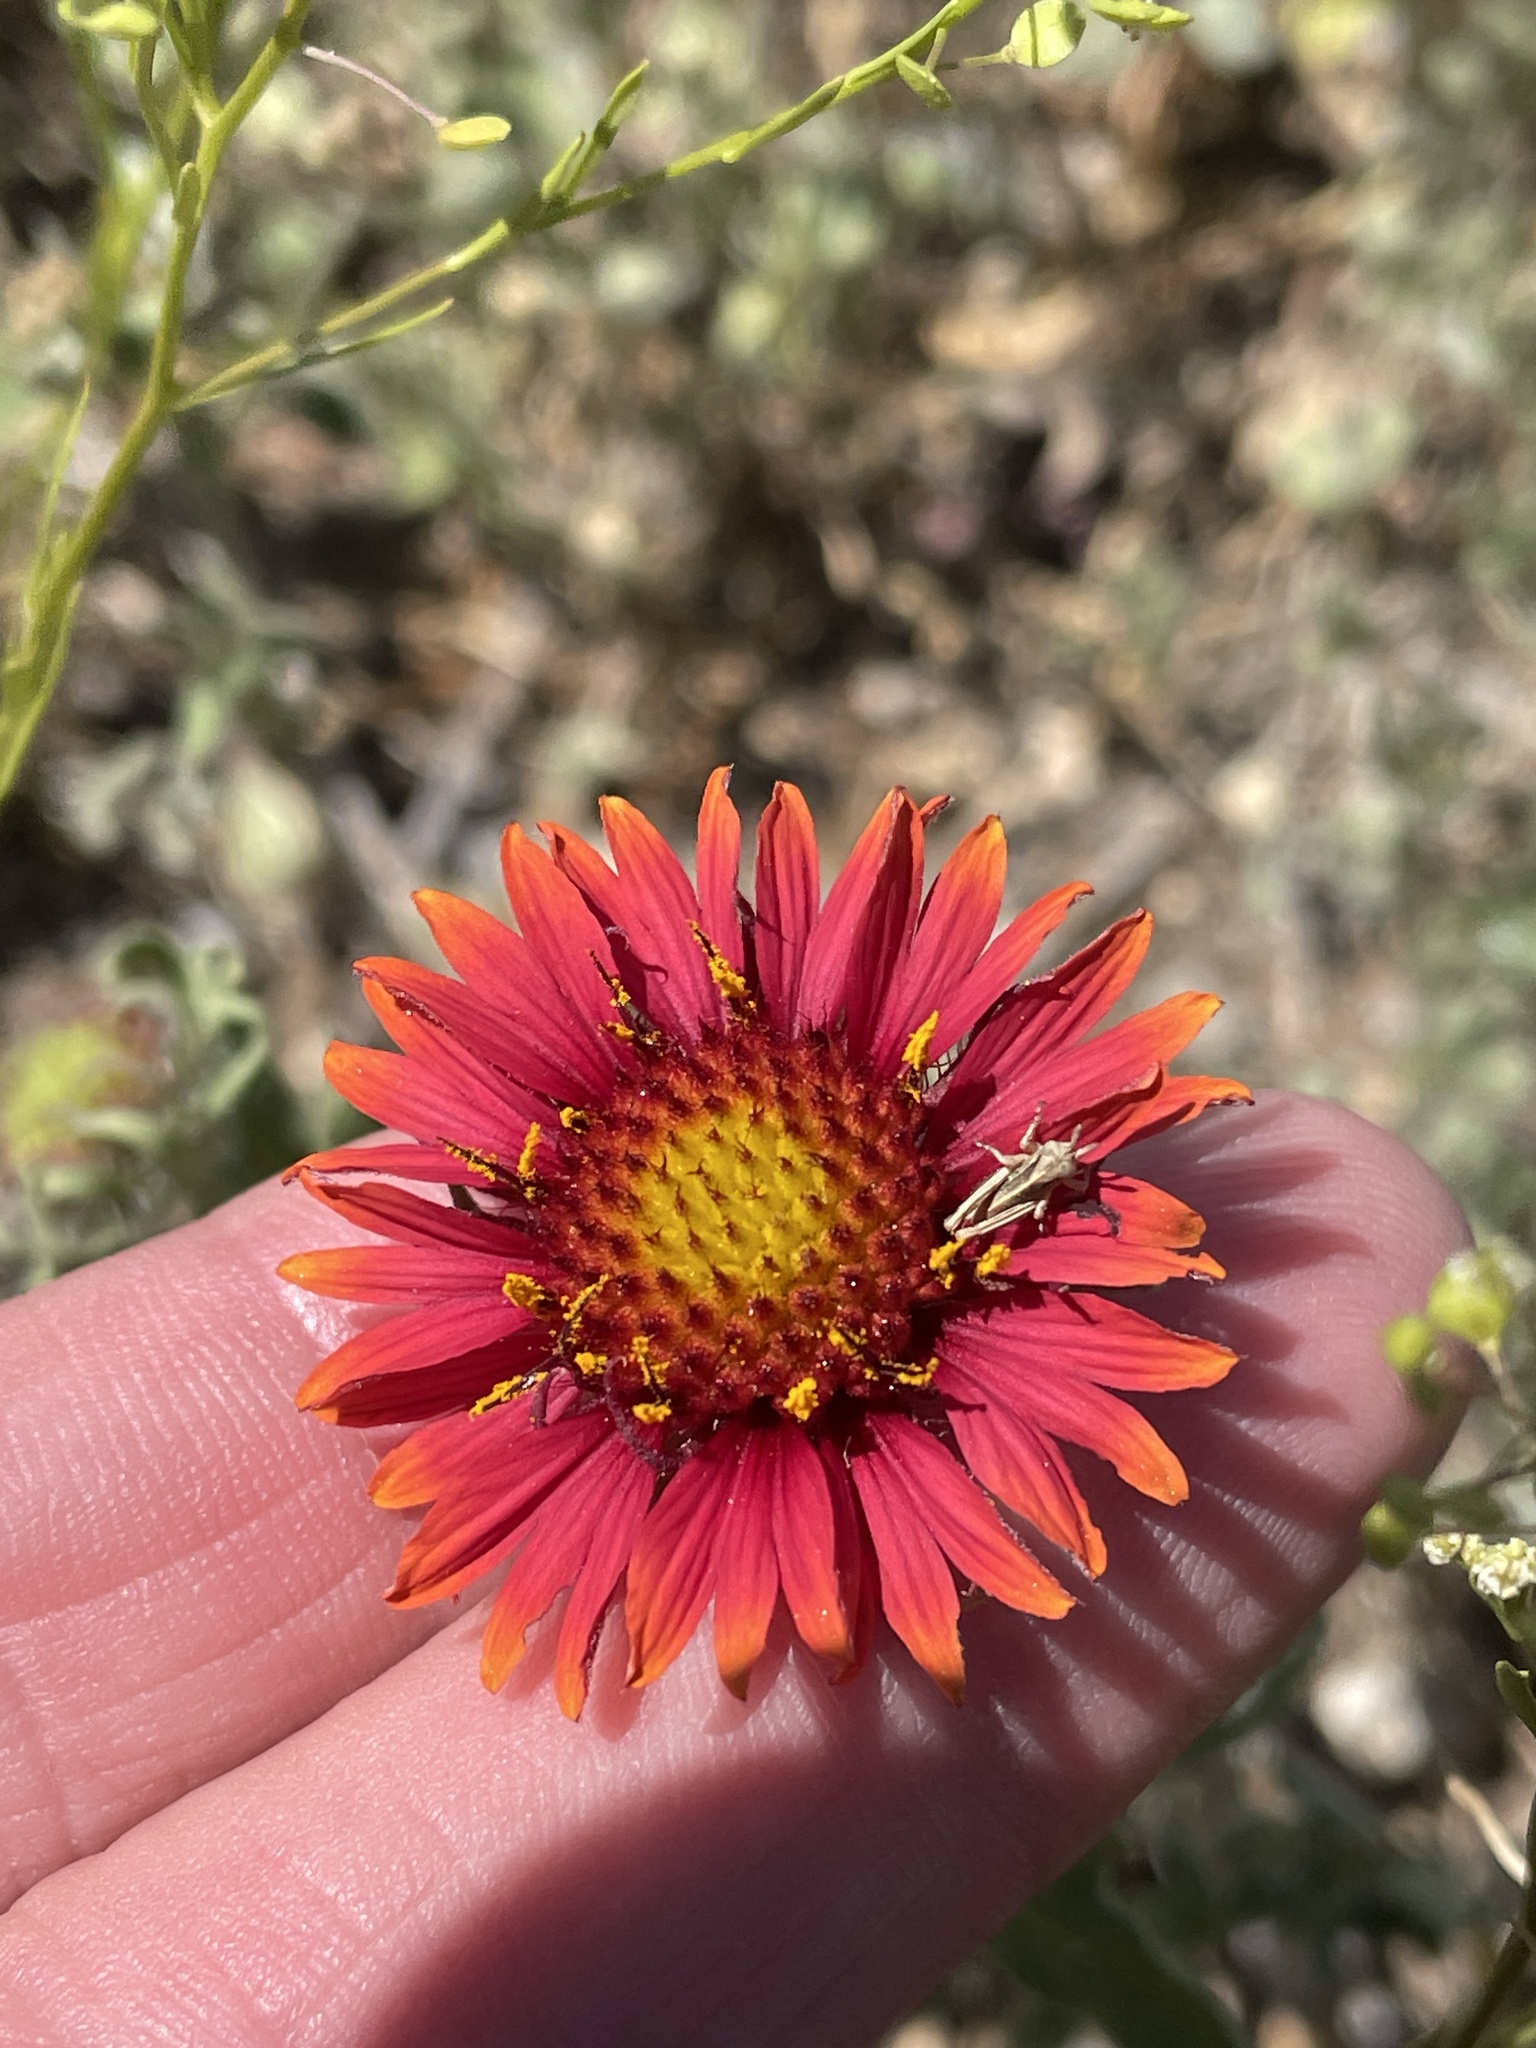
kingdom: Plantae
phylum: Tracheophyta
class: Magnoliopsida
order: Asterales
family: Asteraceae
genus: Gaillardia
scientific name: Gaillardia pulchella
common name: Firewheel
